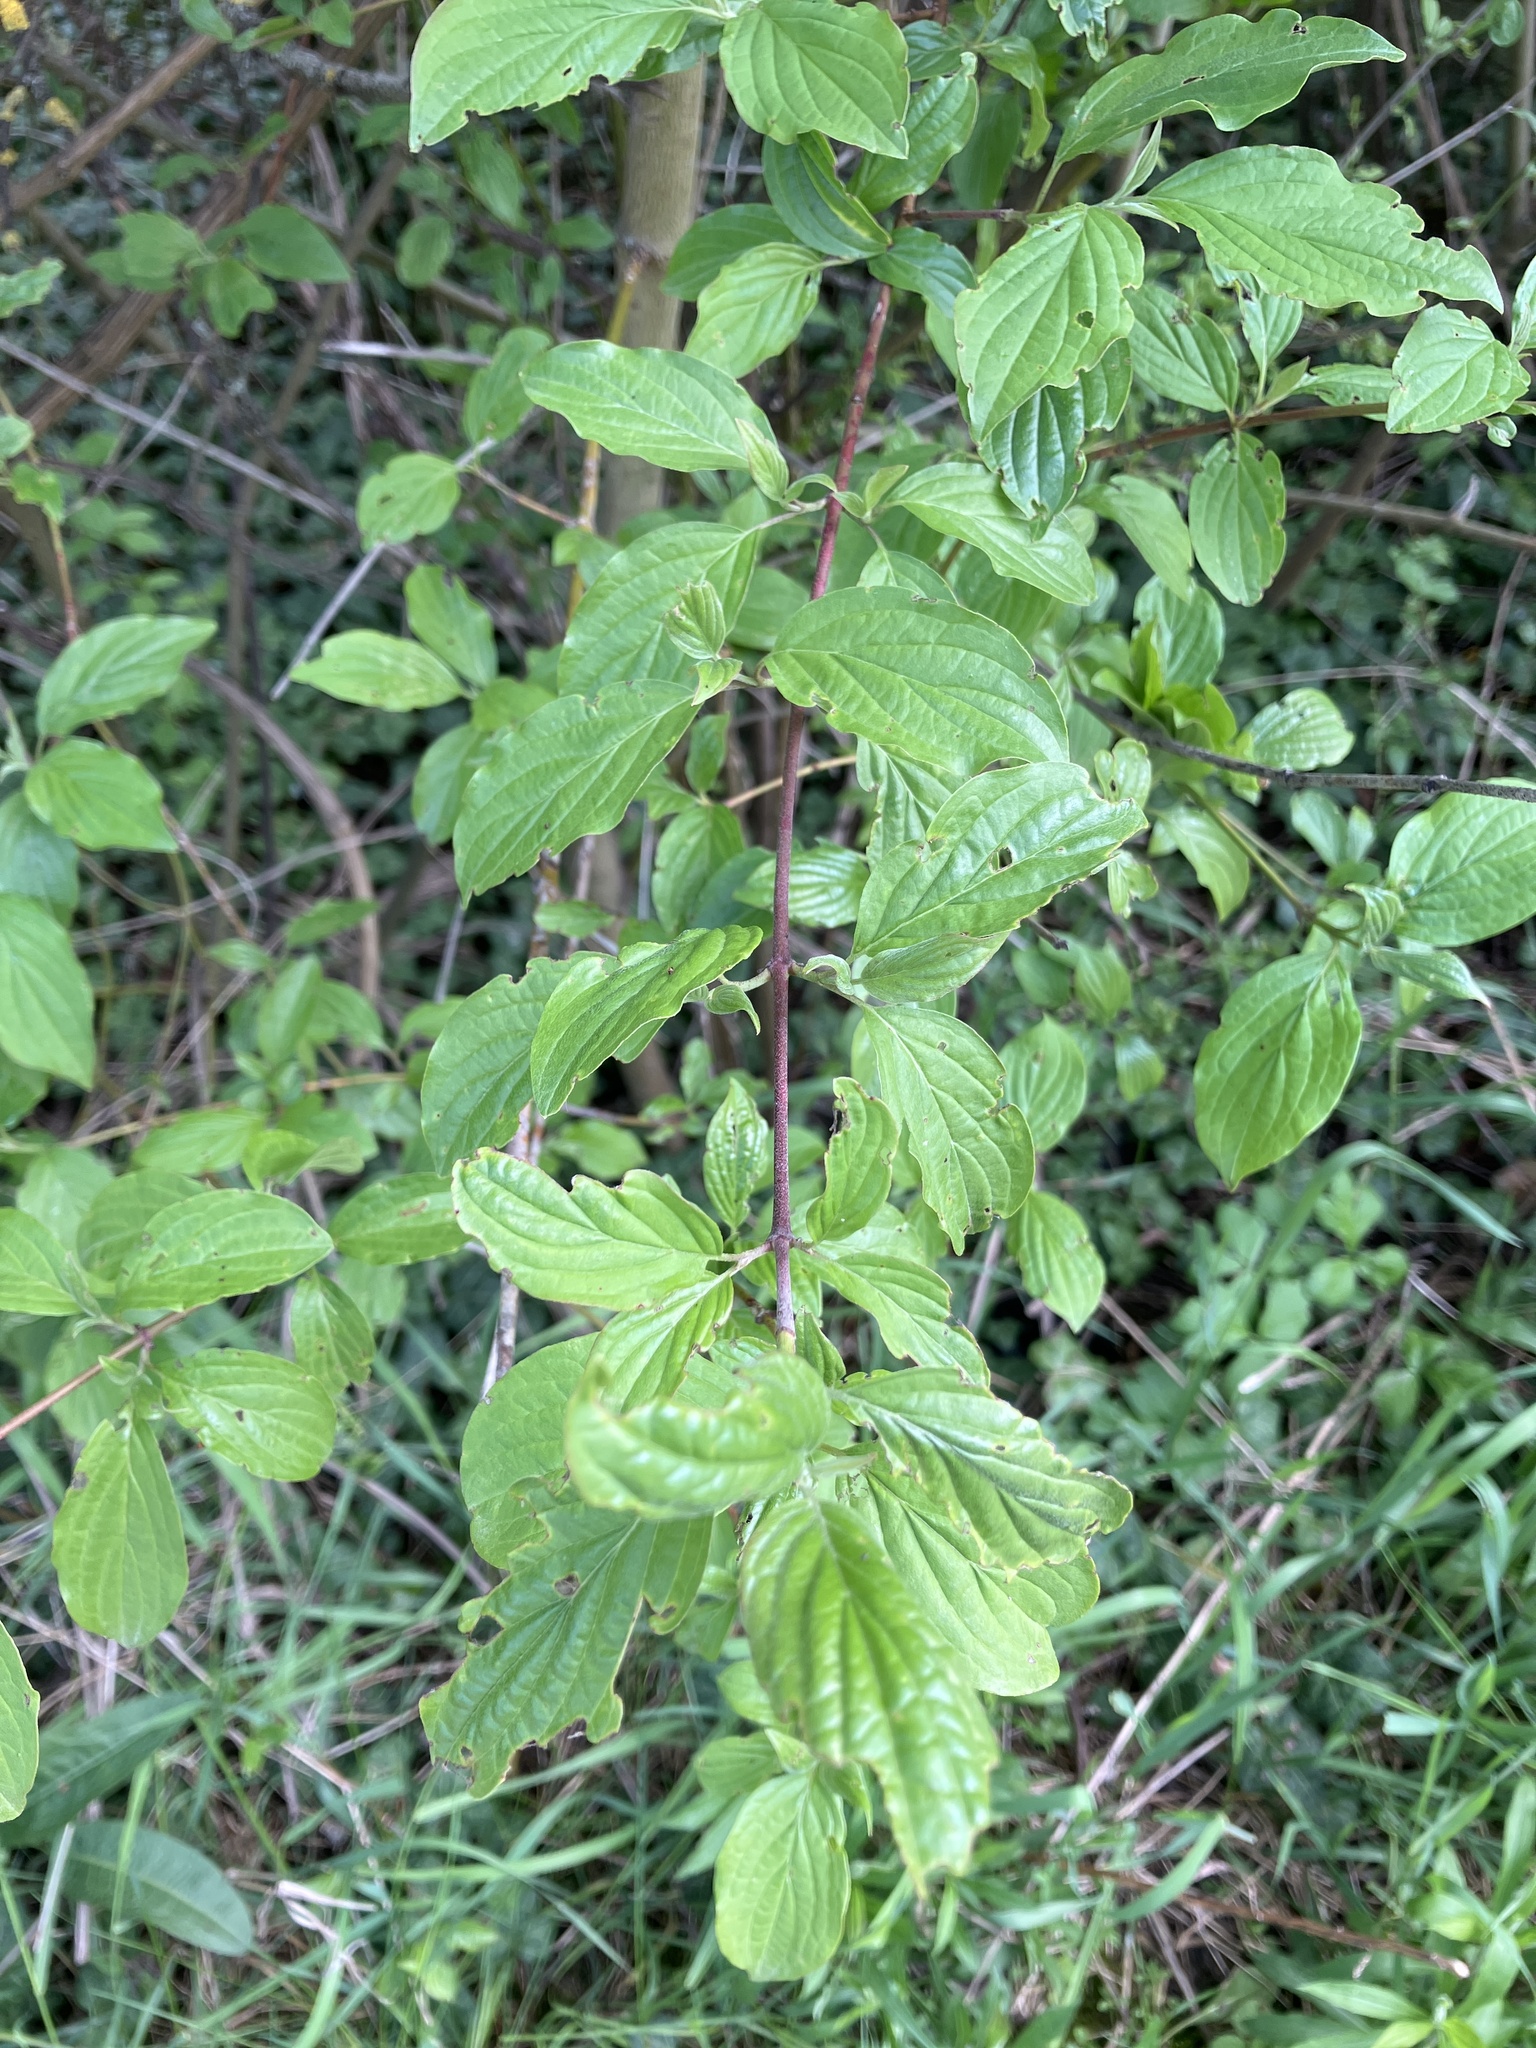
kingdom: Plantae
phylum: Tracheophyta
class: Magnoliopsida
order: Cornales
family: Cornaceae
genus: Cornus
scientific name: Cornus sanguinea
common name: Dogwood
